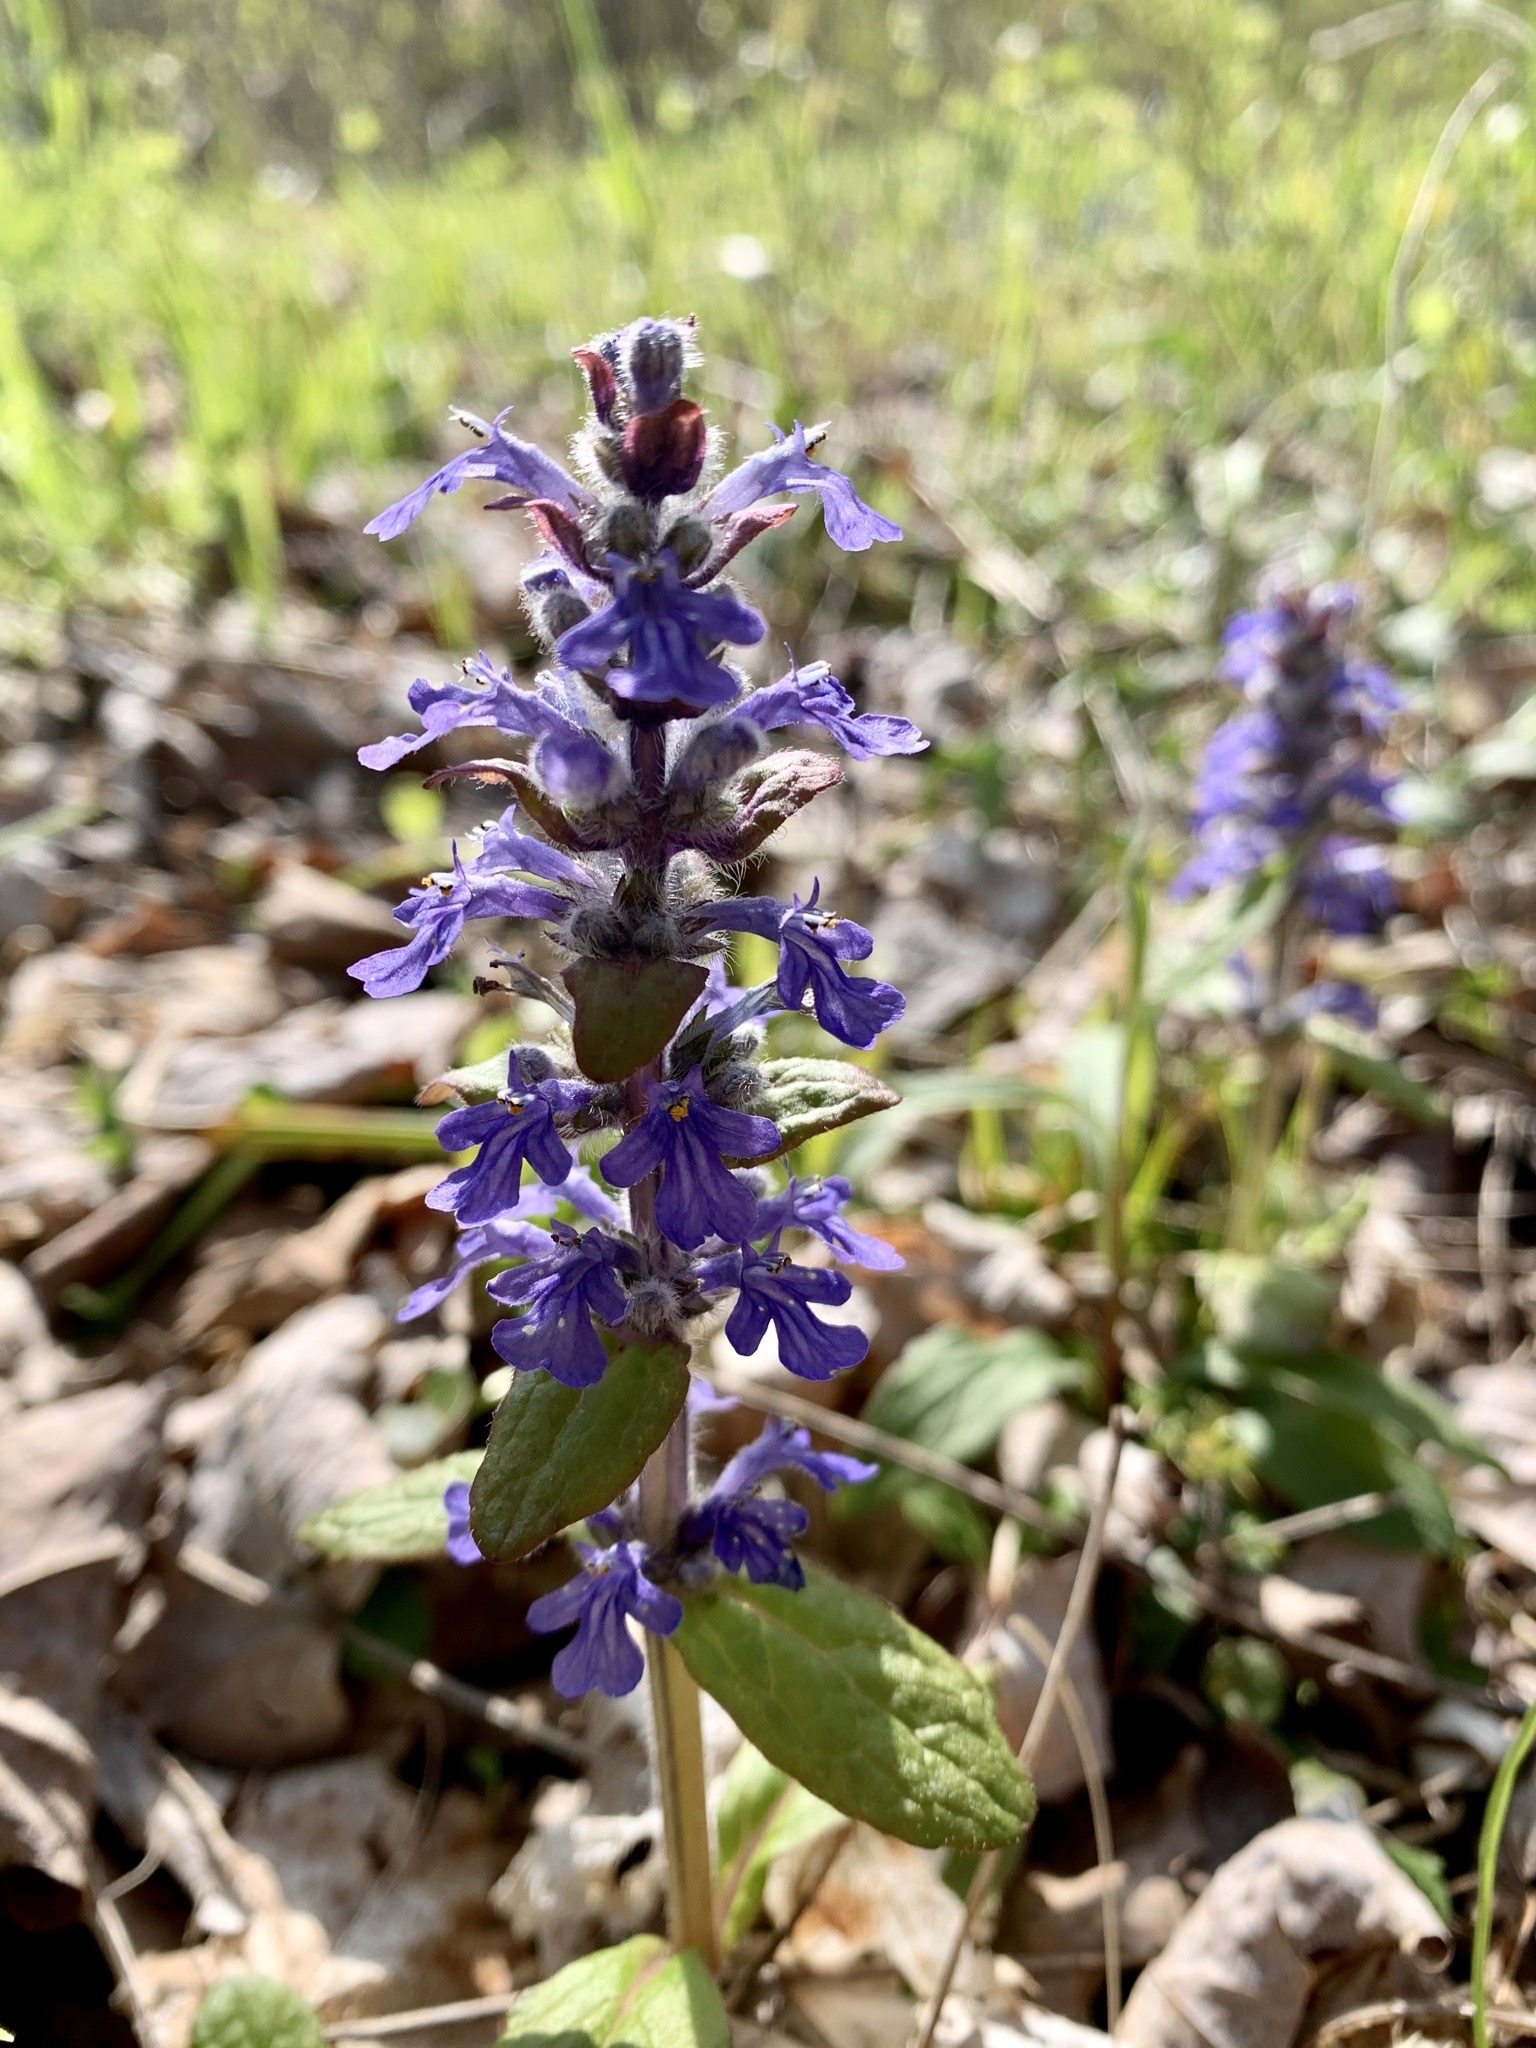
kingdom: Plantae
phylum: Tracheophyta
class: Magnoliopsida
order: Lamiales
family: Lamiaceae
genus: Ajuga
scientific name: Ajuga reptans
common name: Bugle
